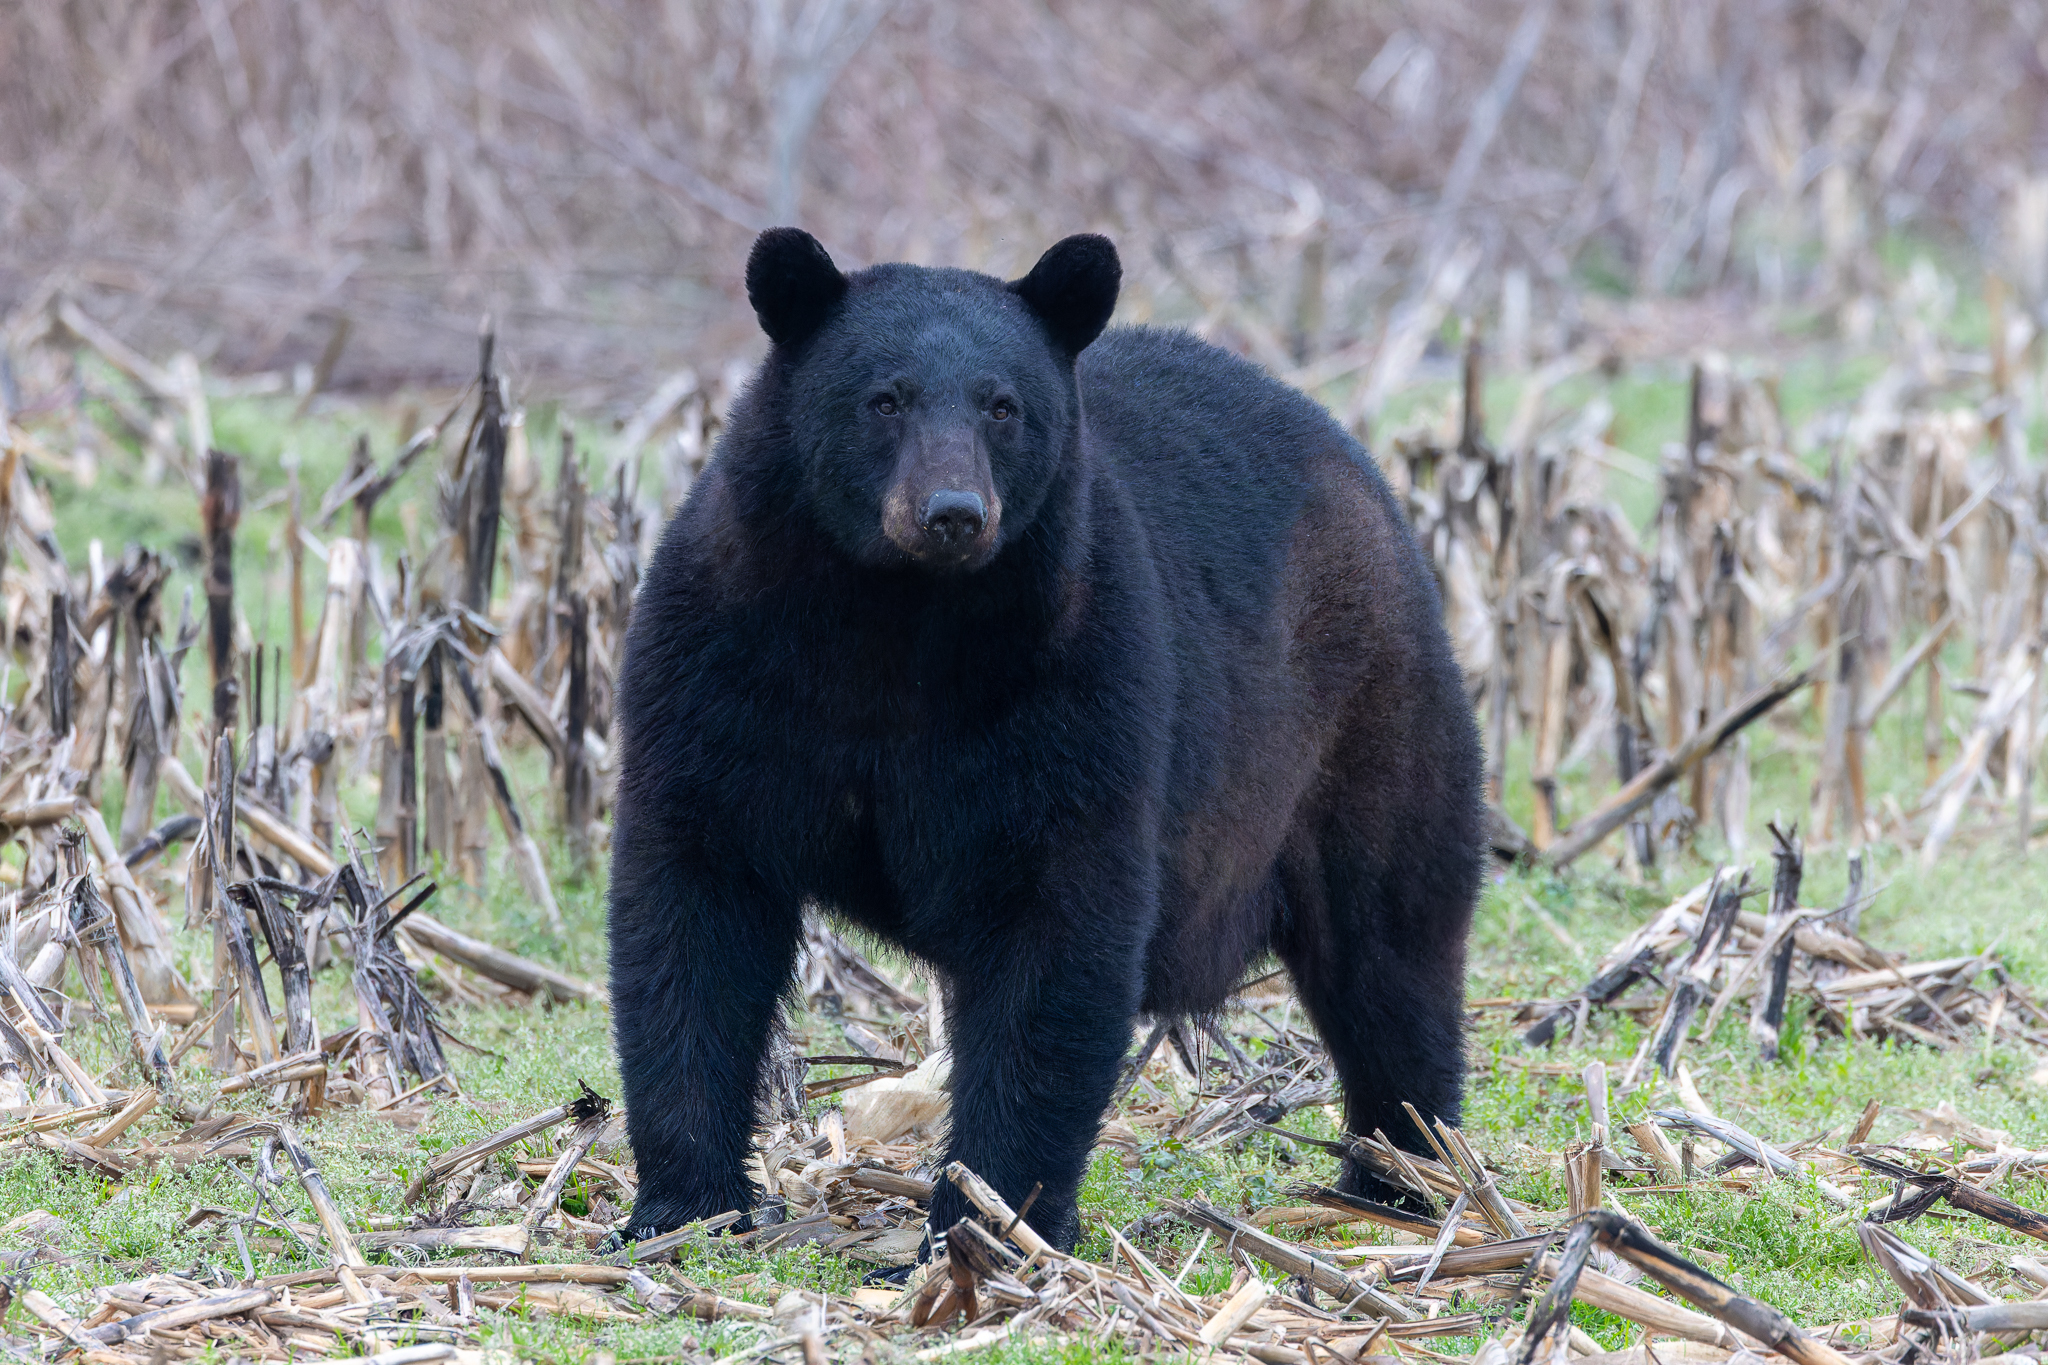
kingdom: Animalia
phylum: Chordata
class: Mammalia
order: Carnivora
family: Ursidae
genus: Ursus
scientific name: Ursus americanus
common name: American black bear
